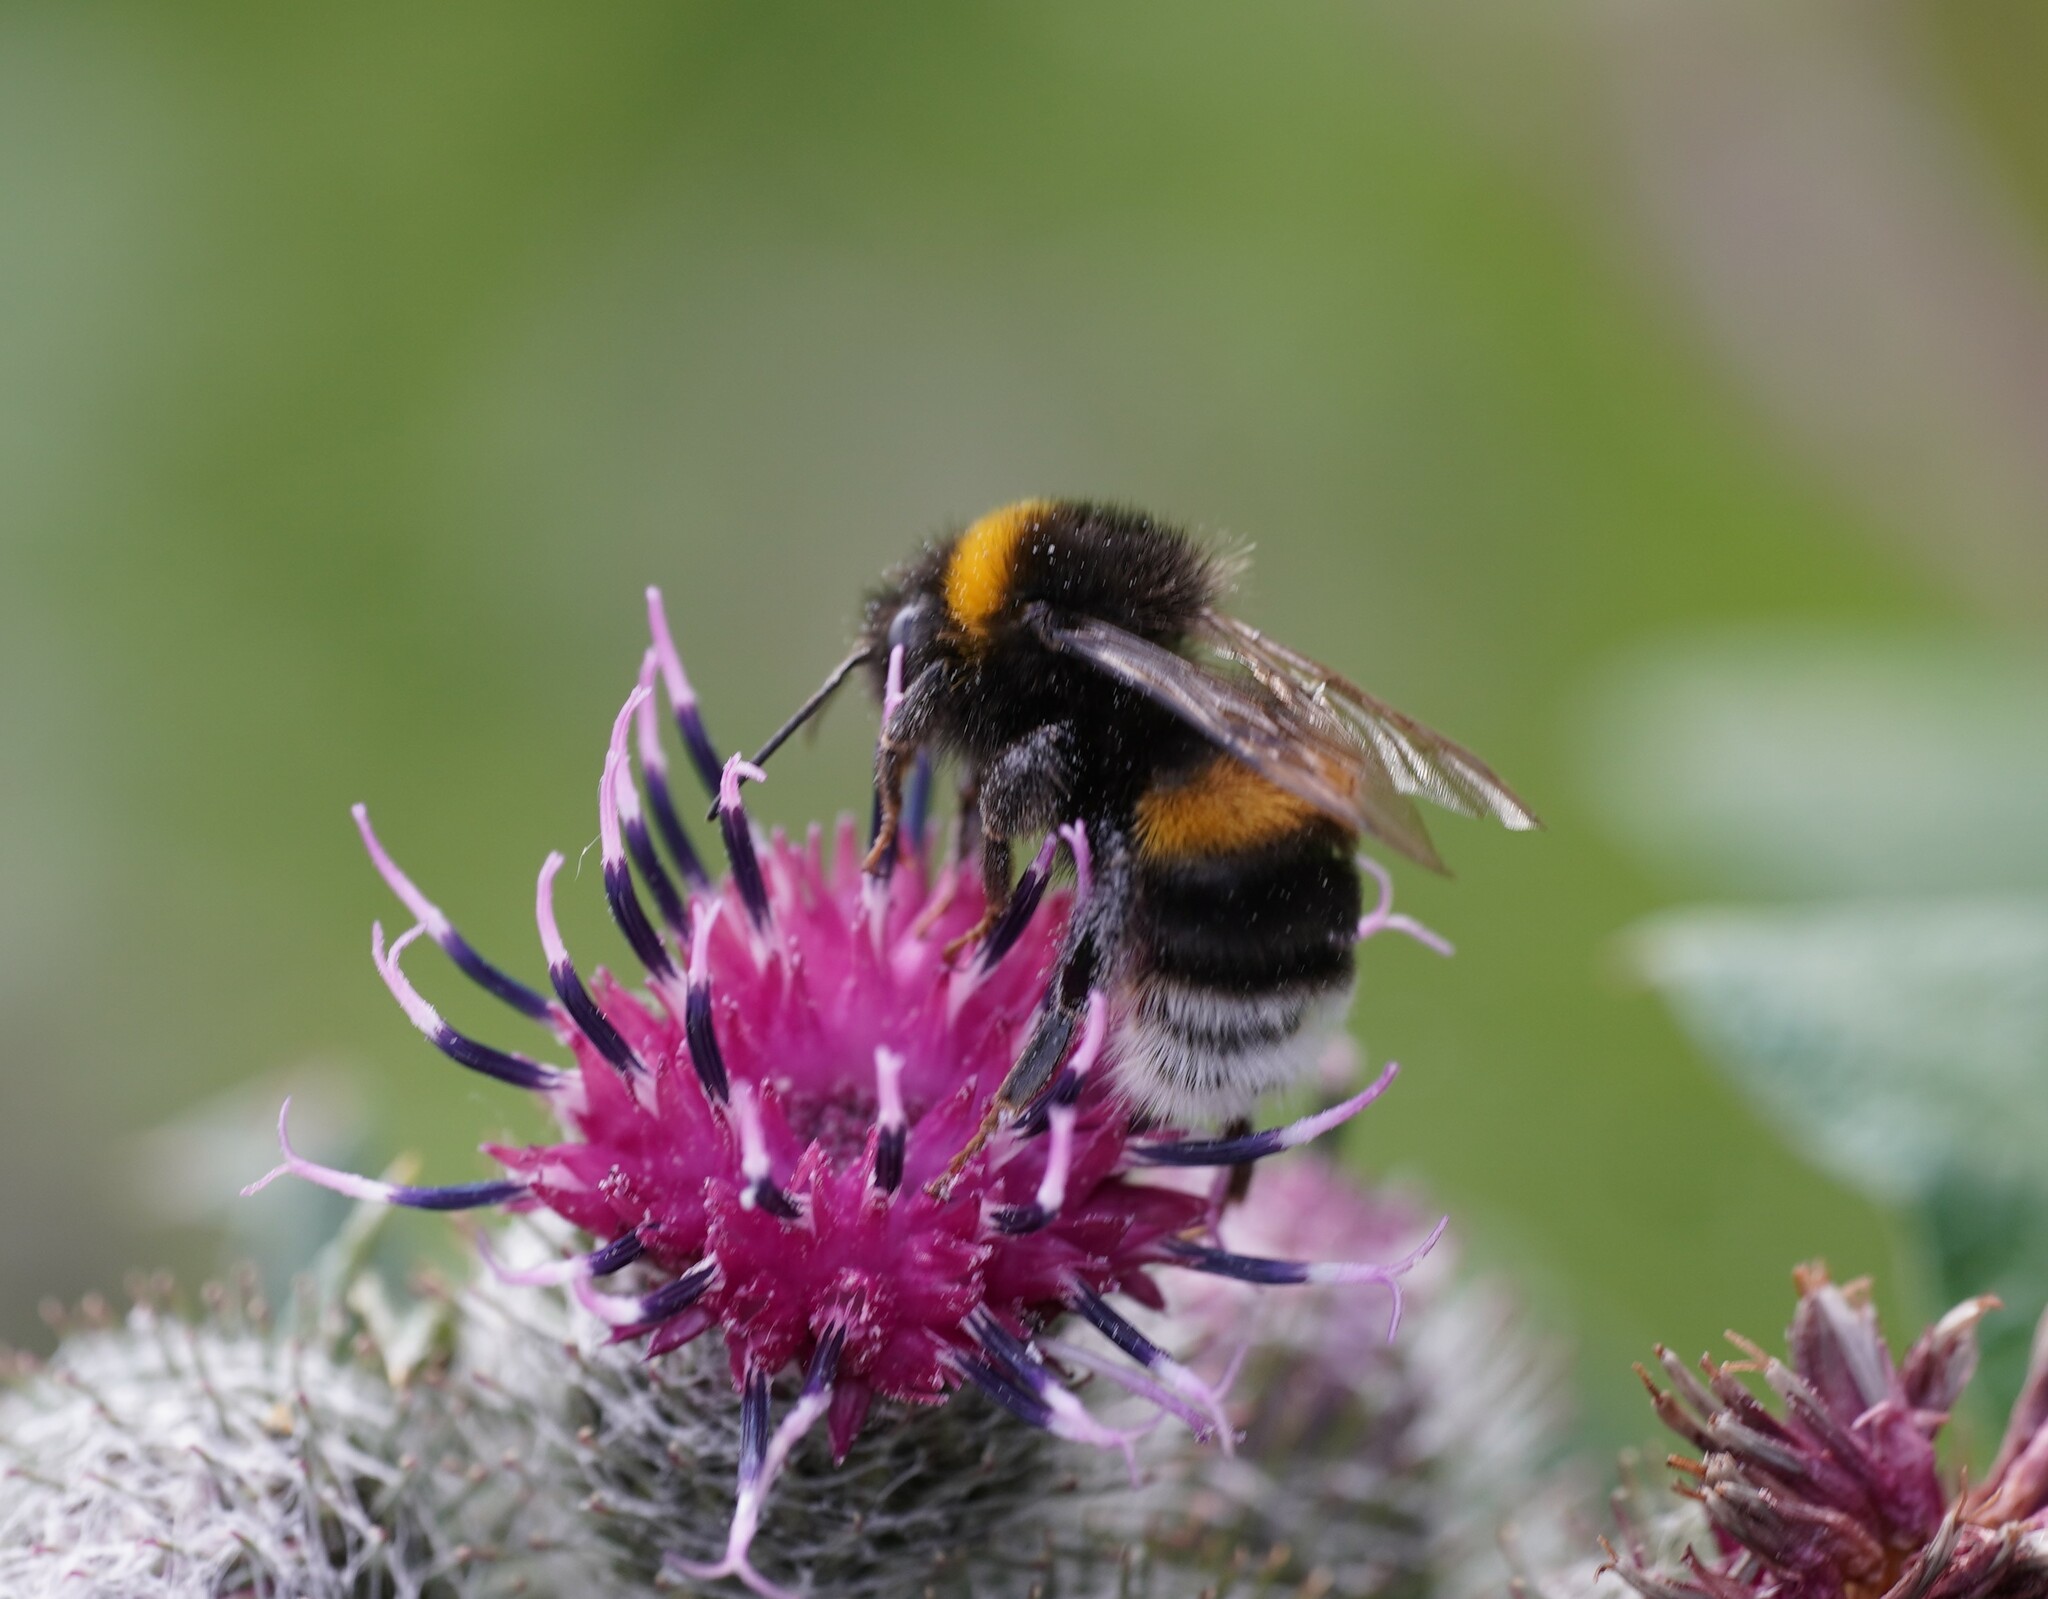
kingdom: Animalia
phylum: Arthropoda
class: Insecta
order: Hymenoptera
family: Apidae
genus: Bombus
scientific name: Bombus
